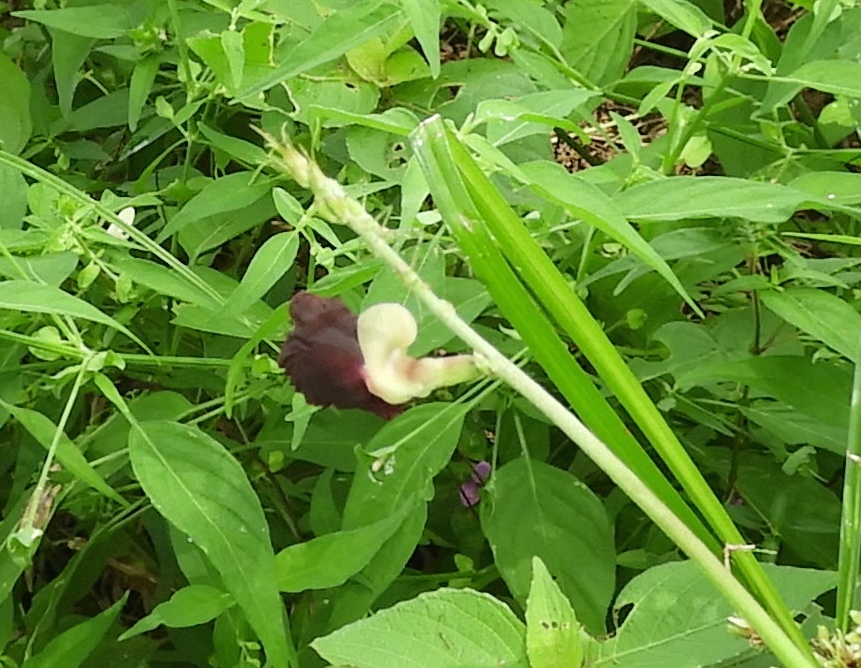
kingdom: Plantae
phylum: Tracheophyta
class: Magnoliopsida
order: Fabales
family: Fabaceae
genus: Macroptilium
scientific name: Macroptilium atropurpureum
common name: Purple bushbean
